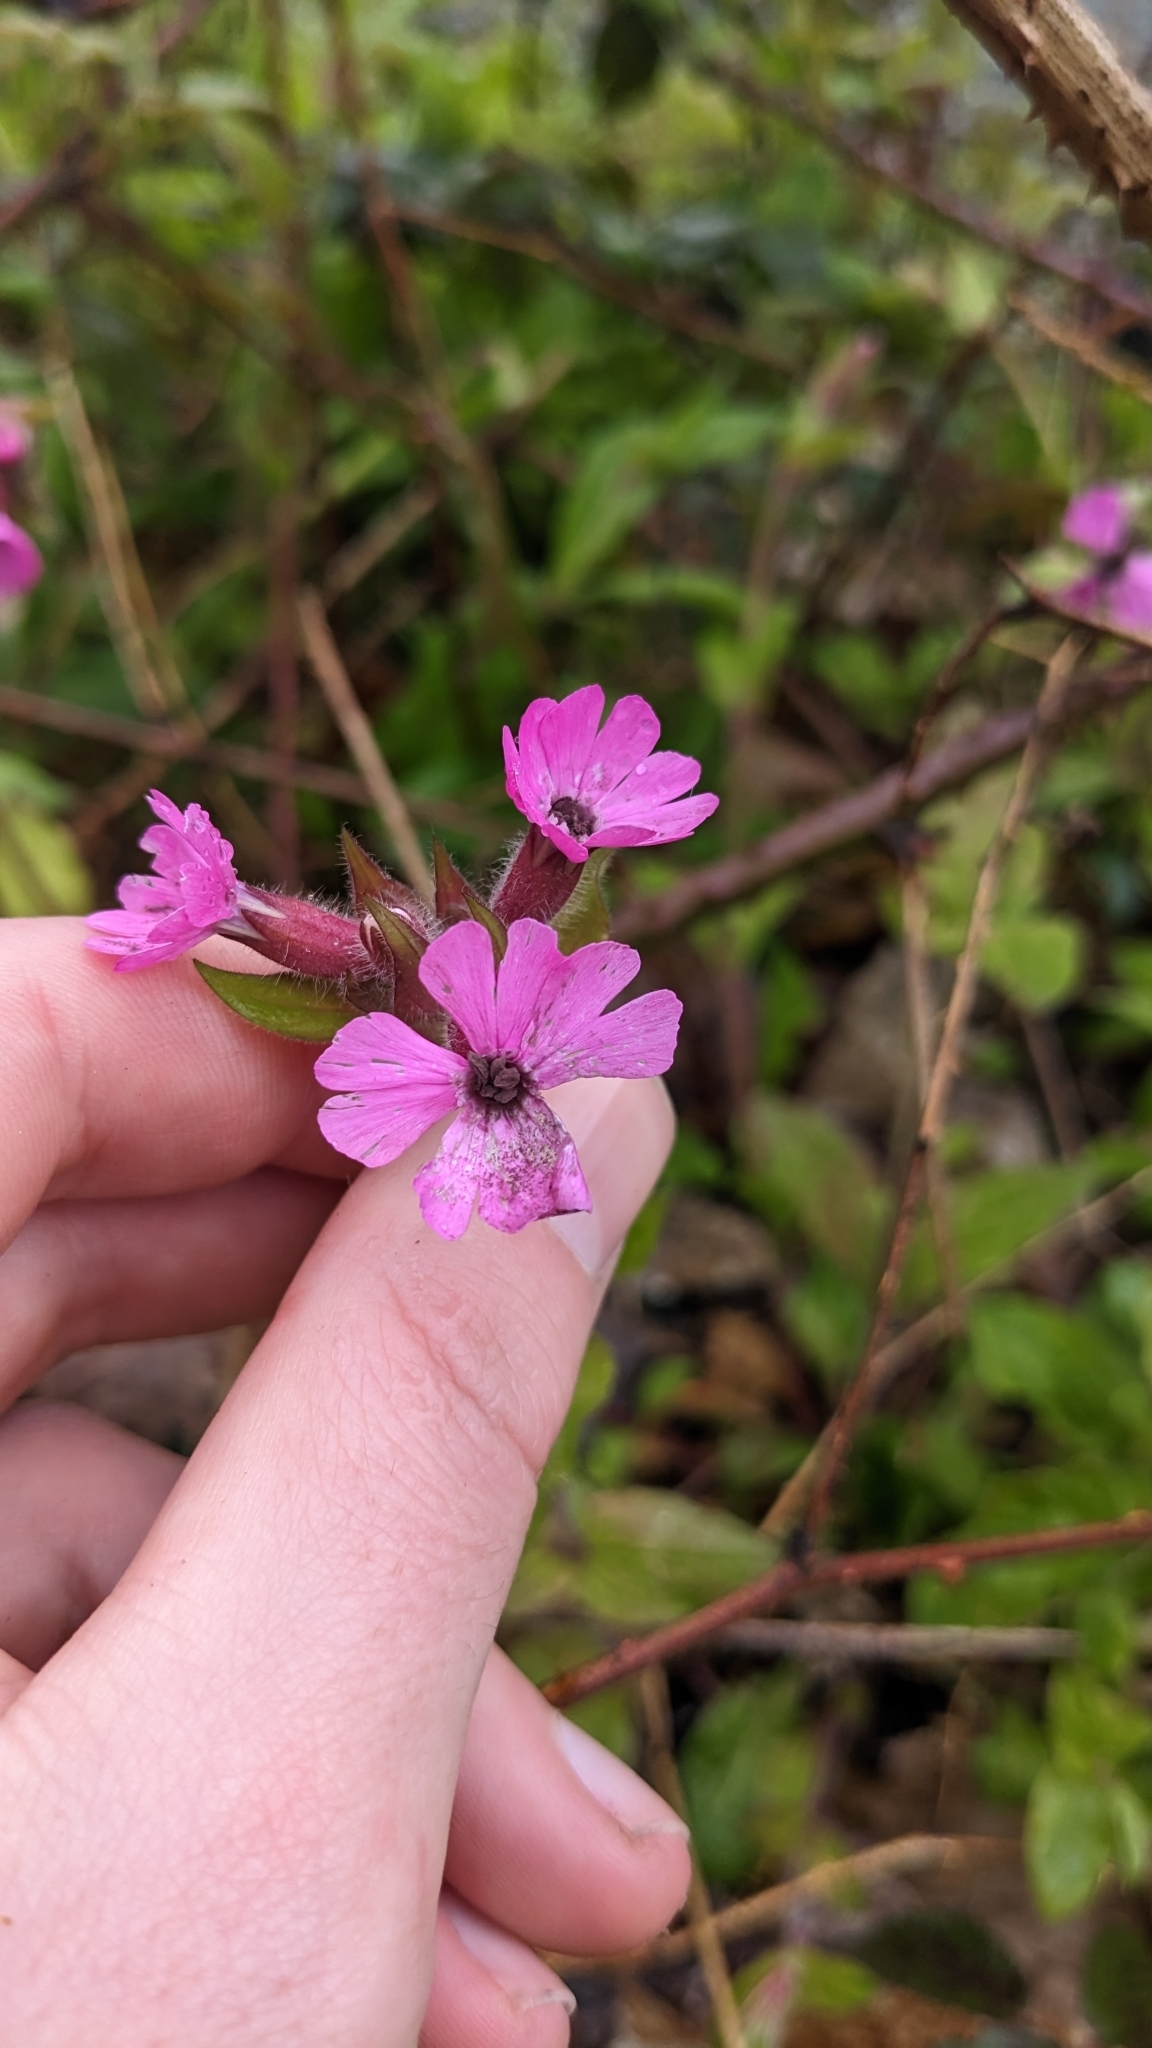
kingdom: Fungi
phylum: Basidiomycota
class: Microbotryomycetes
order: Microbotryales
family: Microbotryaceae
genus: Microbotryum
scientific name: Microbotryum silenes-dioicae
